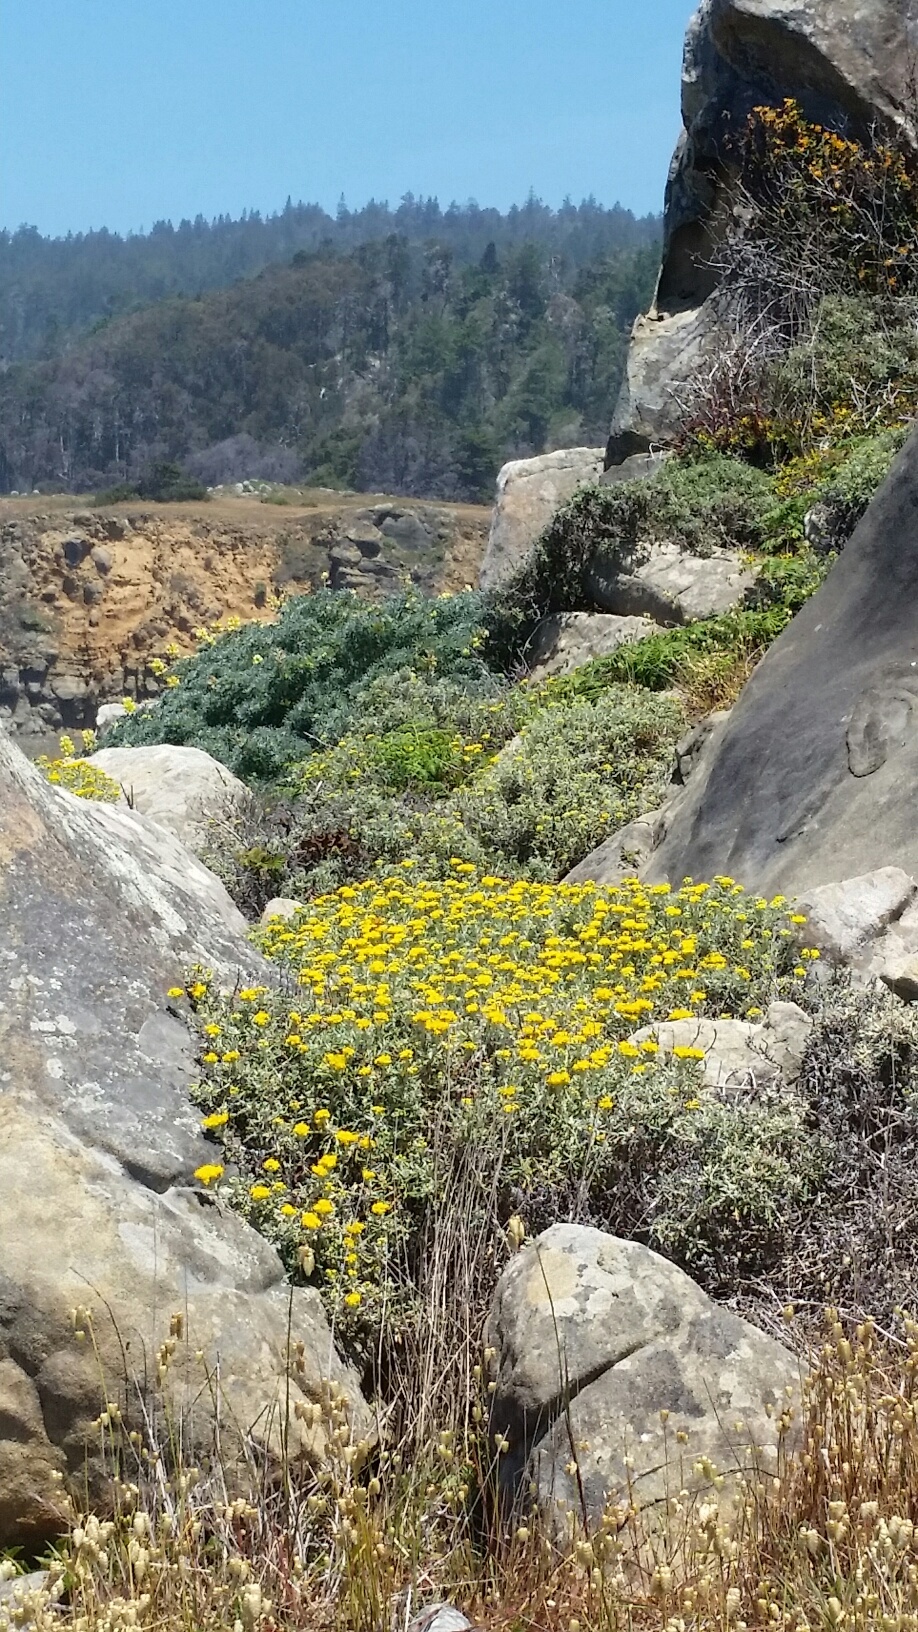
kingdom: Plantae
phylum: Tracheophyta
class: Magnoliopsida
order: Asterales
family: Asteraceae
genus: Eriophyllum
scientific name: Eriophyllum staechadifolium
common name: Lizardtail
